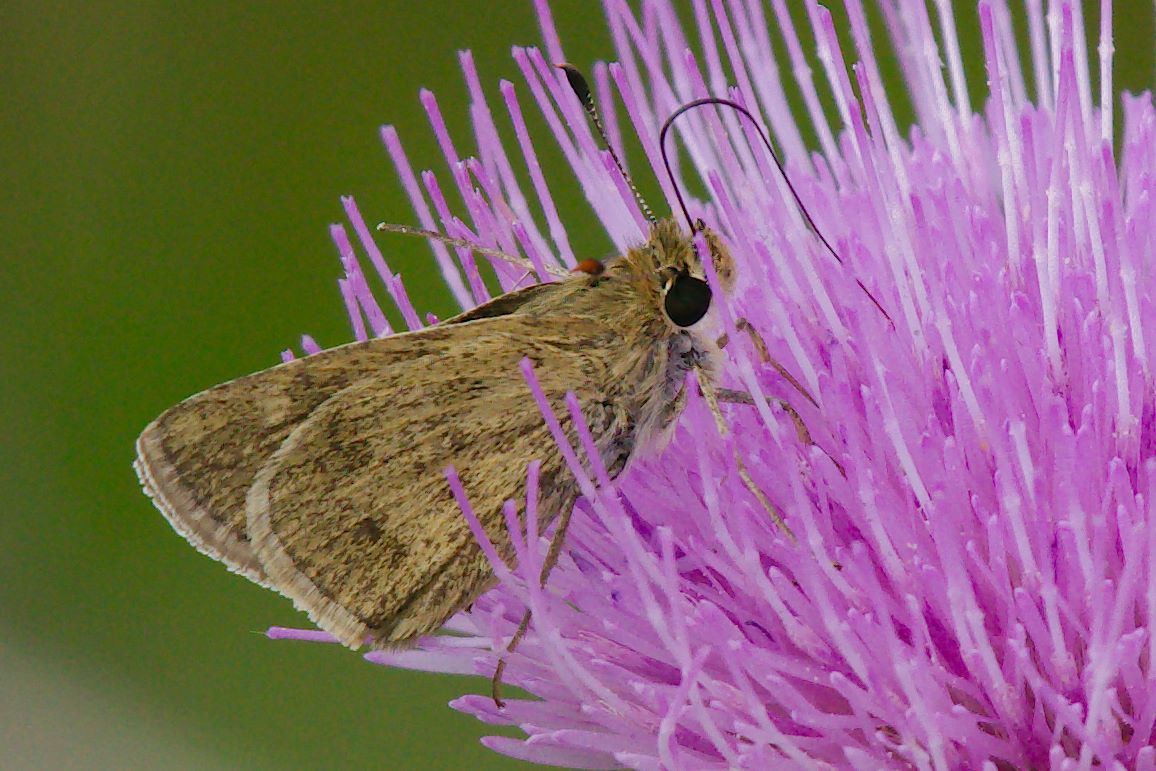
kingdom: Animalia
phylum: Arthropoda
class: Insecta
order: Lepidoptera
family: Hesperiidae
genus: Polites
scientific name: Polites vibex
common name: Whirlabout
